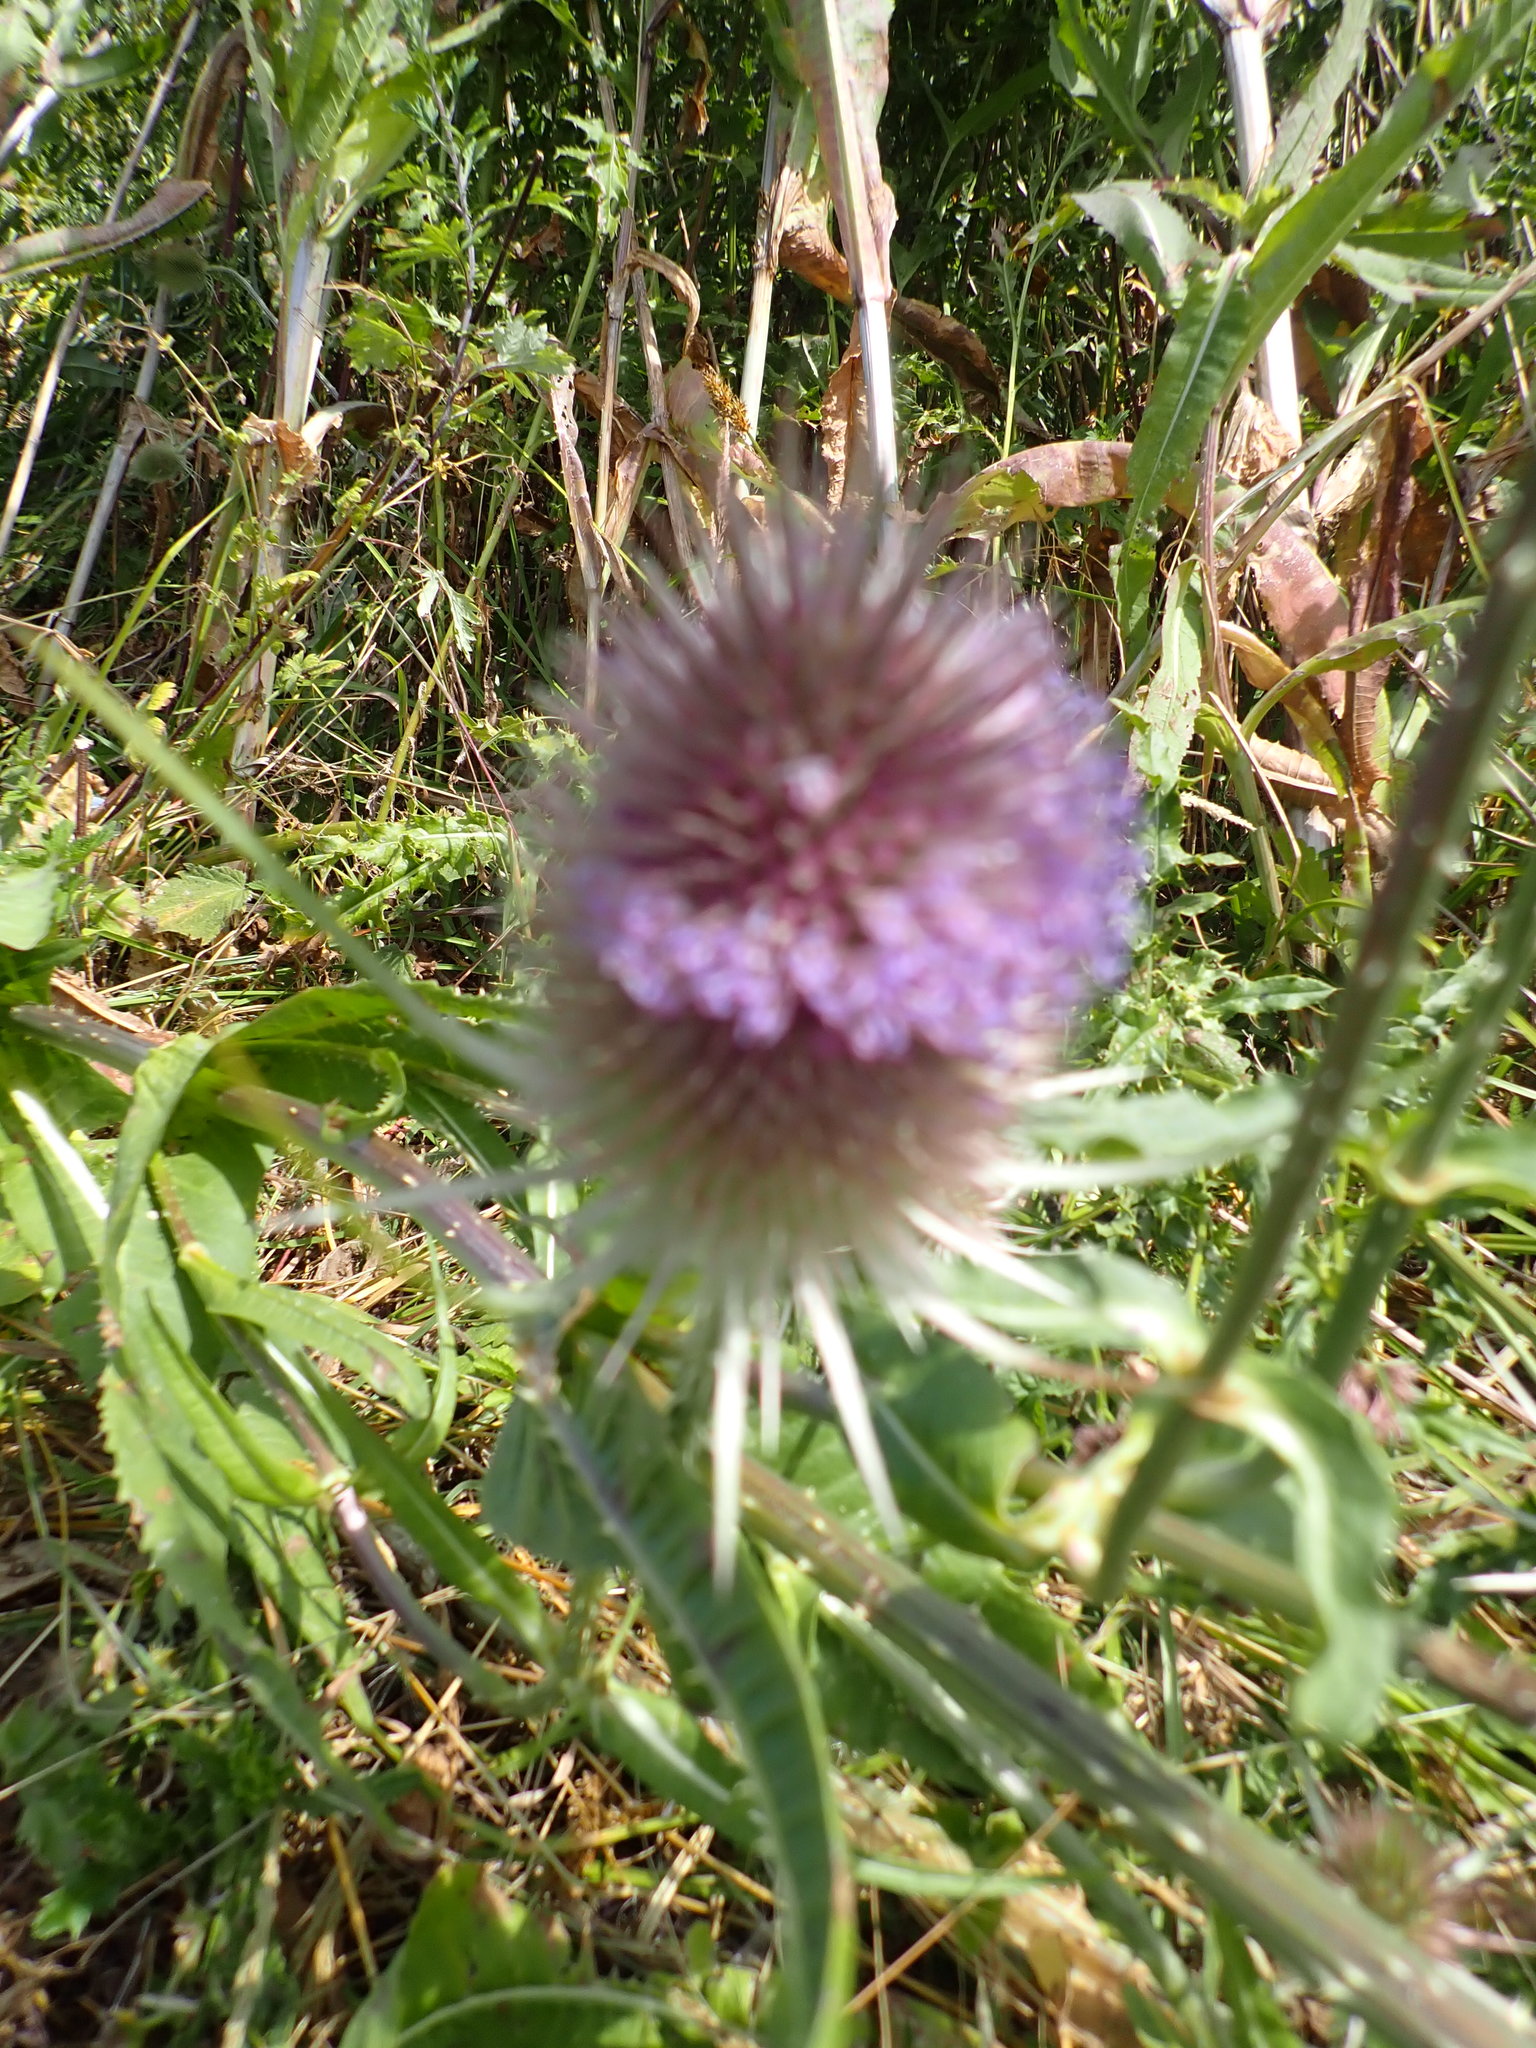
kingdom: Plantae
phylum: Tracheophyta
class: Magnoliopsida
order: Dipsacales
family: Caprifoliaceae
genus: Dipsacus
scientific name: Dipsacus fullonum
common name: Teasel
